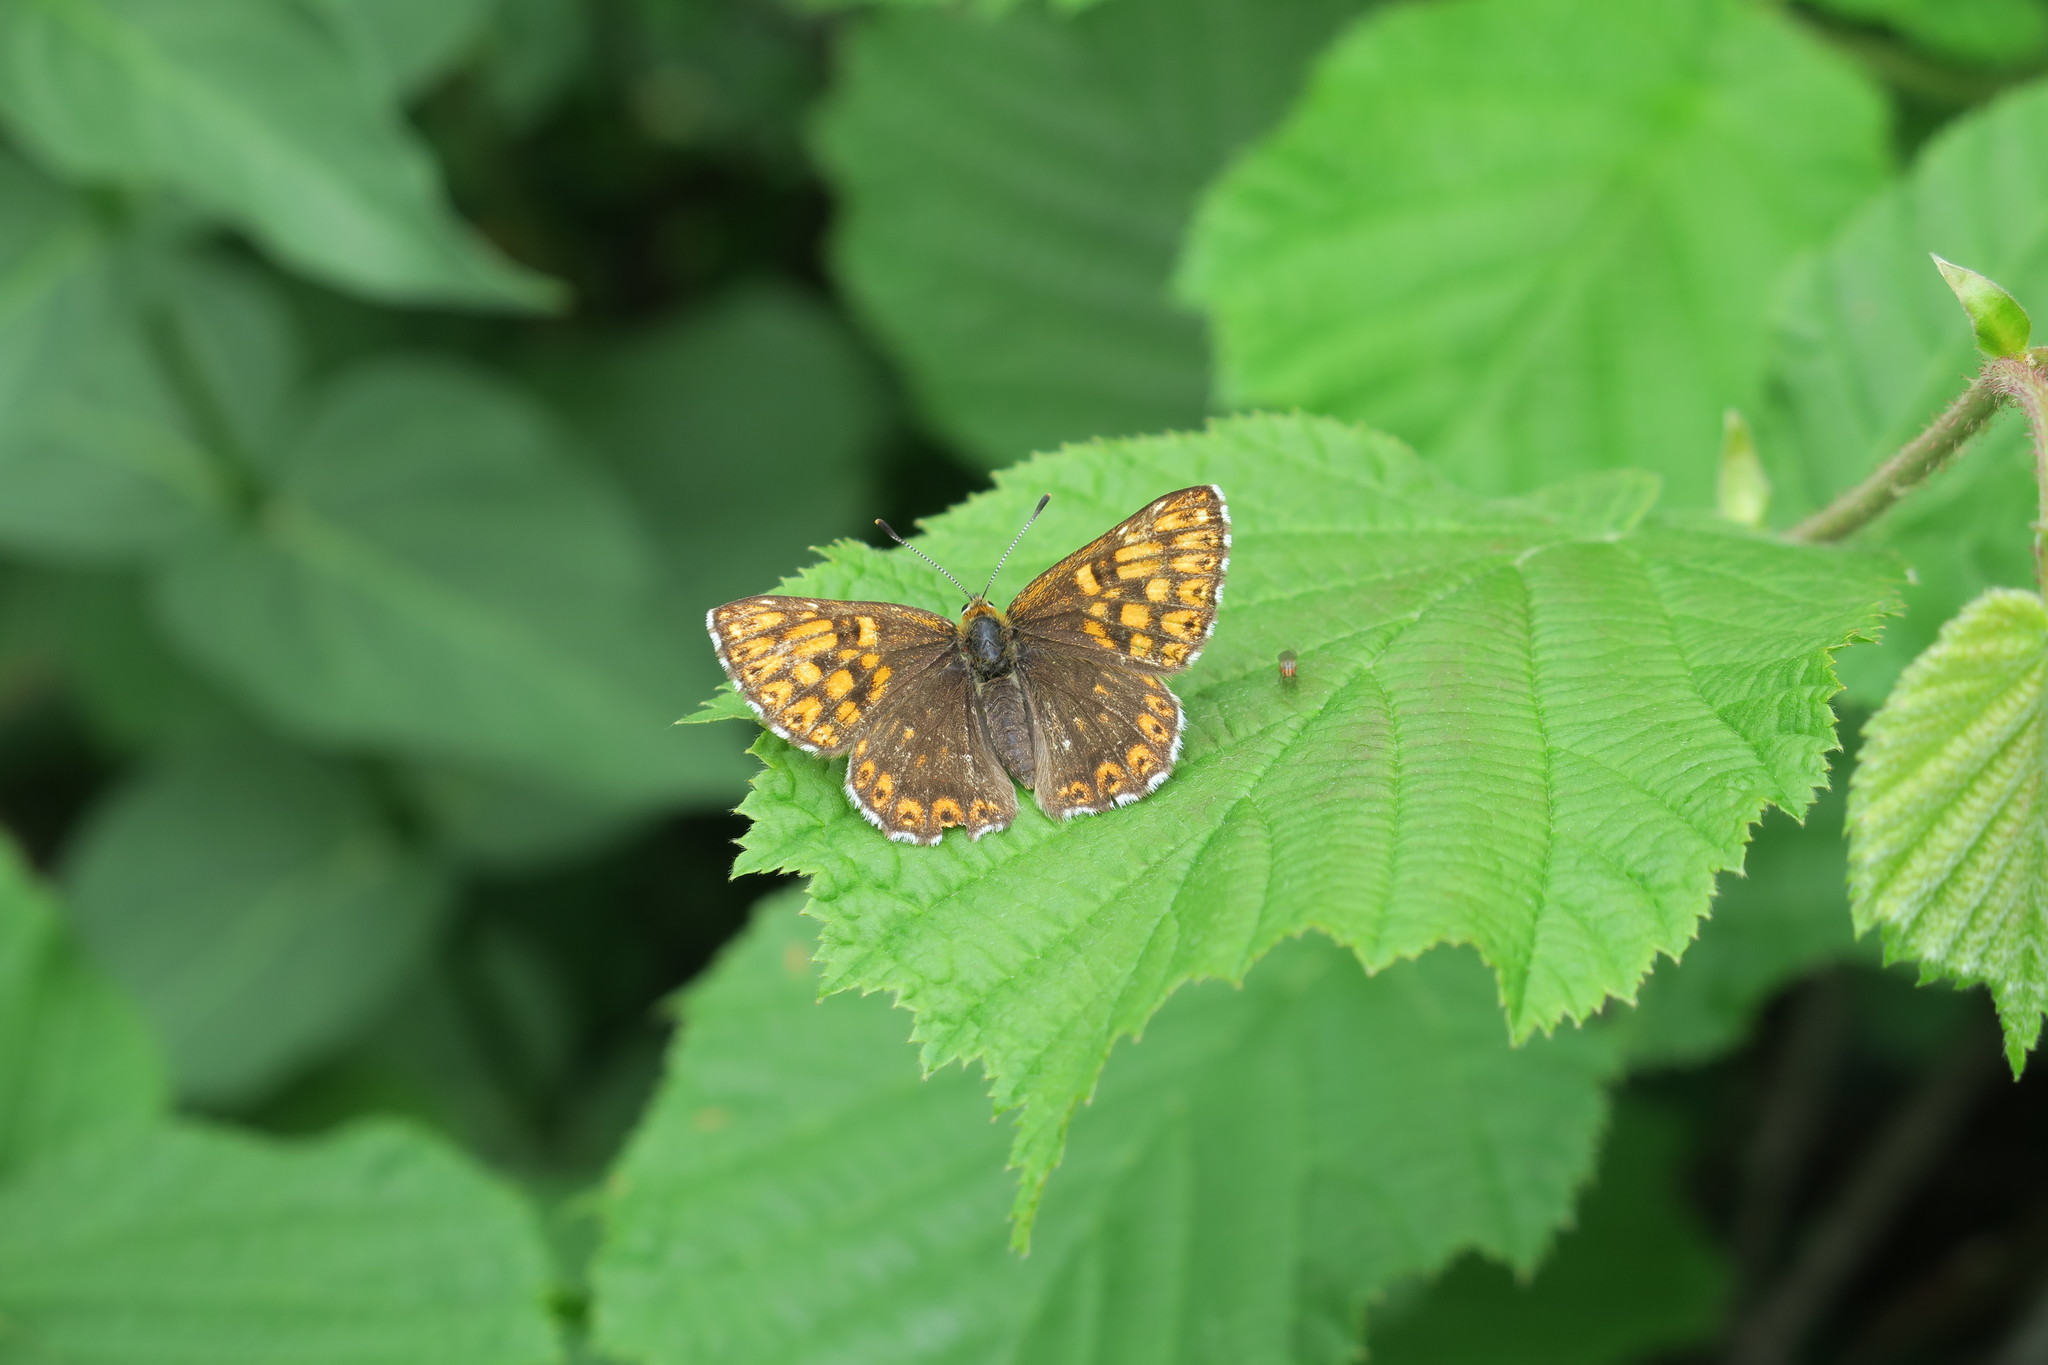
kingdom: Animalia
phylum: Arthropoda
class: Insecta
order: Lepidoptera
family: Riodinidae
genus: Hamearis
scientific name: Hamearis lucina
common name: Duke of burgundy fritillary
